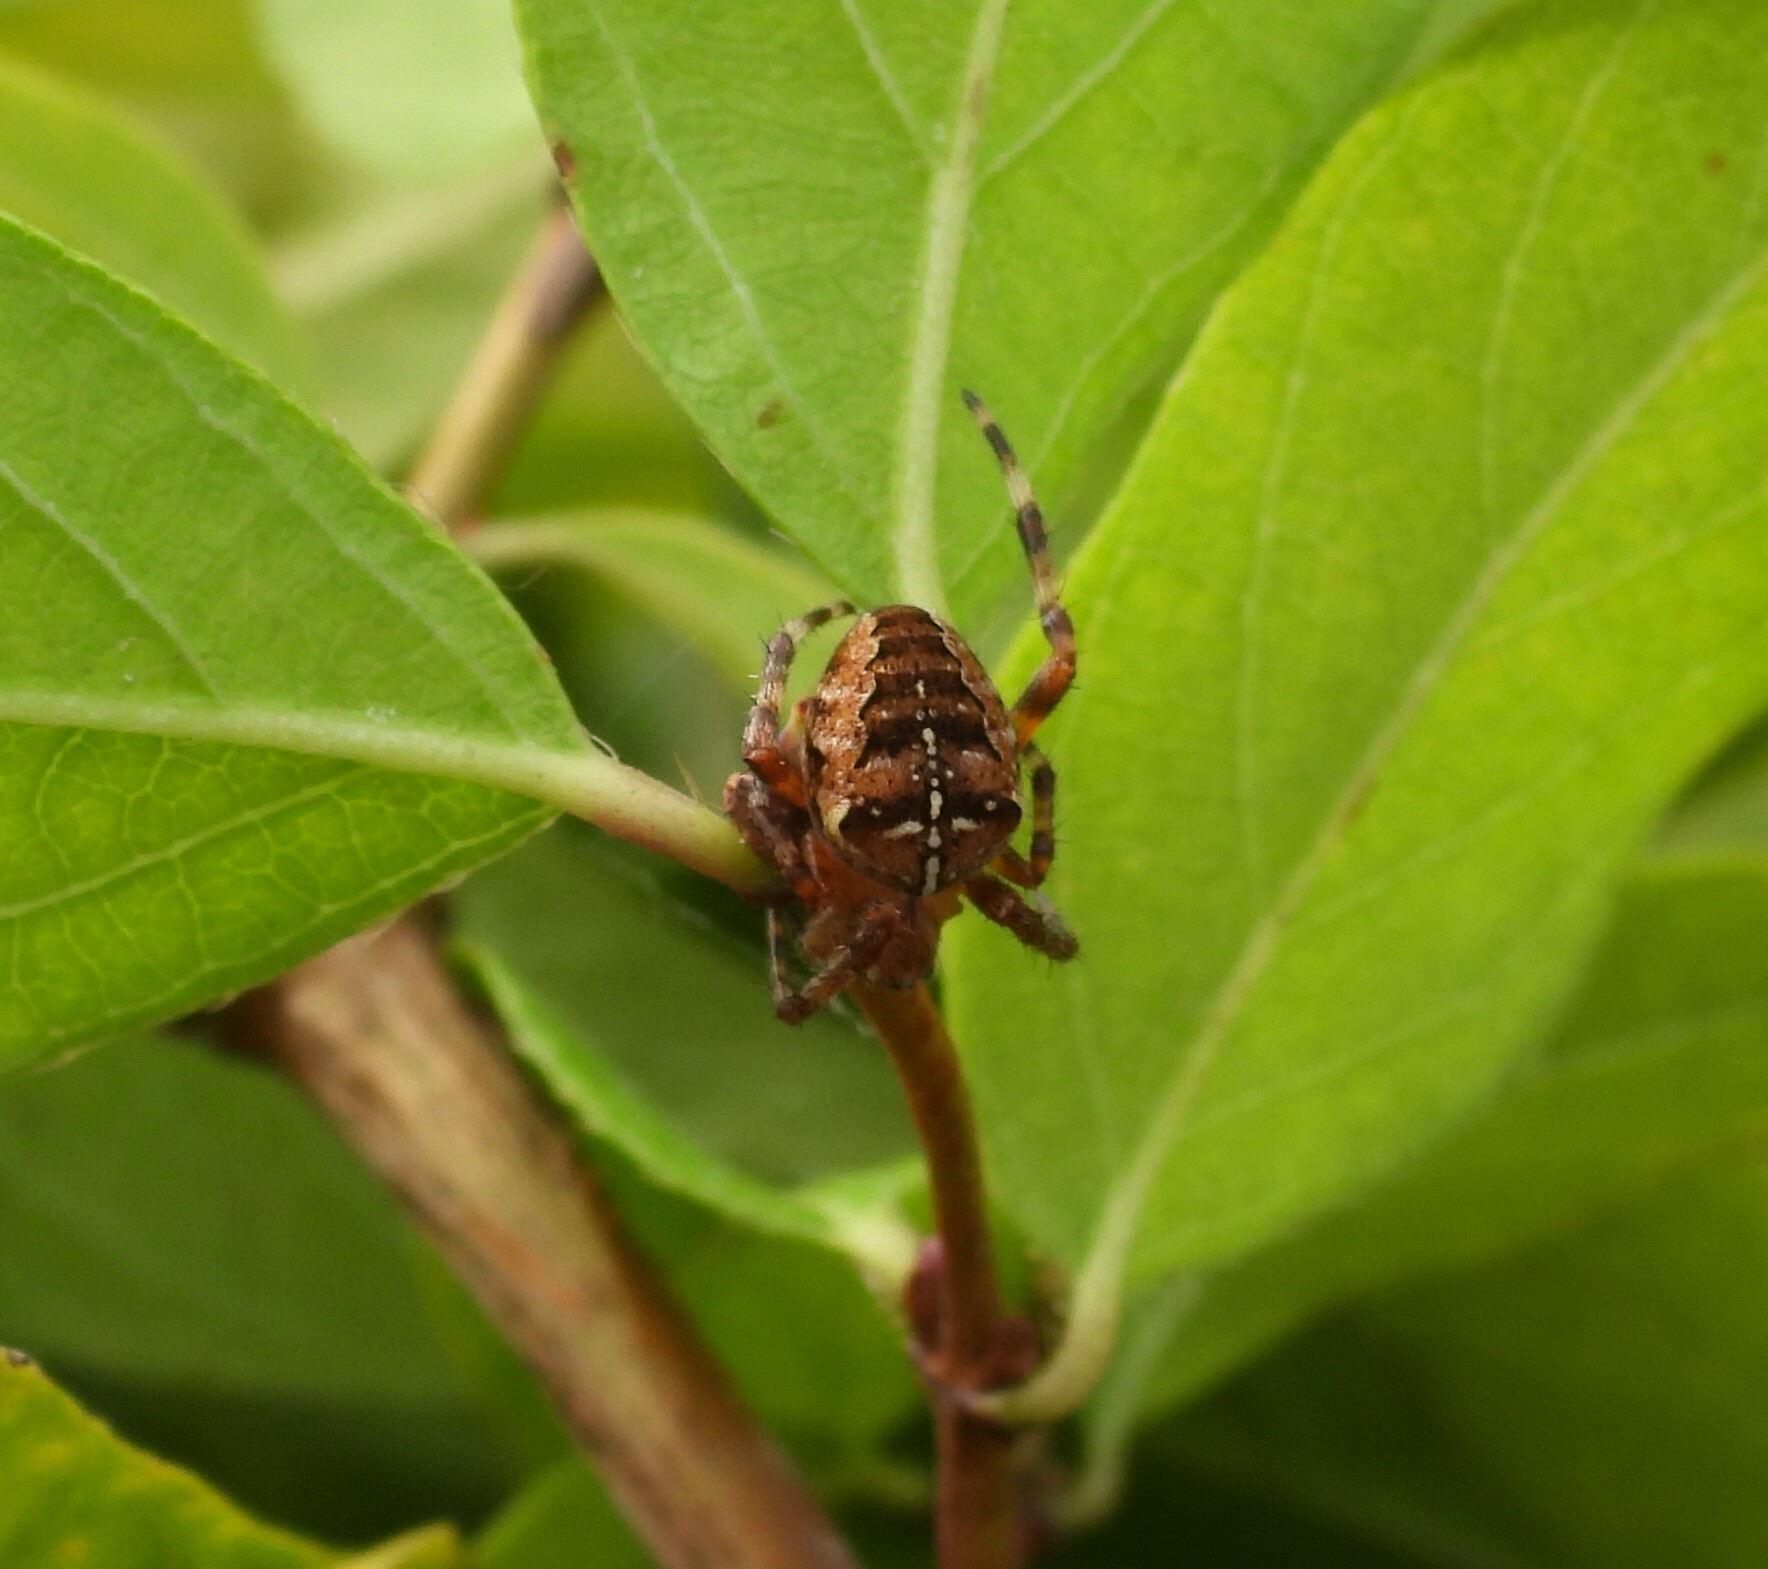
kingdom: Animalia
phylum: Arthropoda
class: Arachnida
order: Araneae
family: Araneidae
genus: Araneus
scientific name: Araneus diadematus
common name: Cross orbweaver
